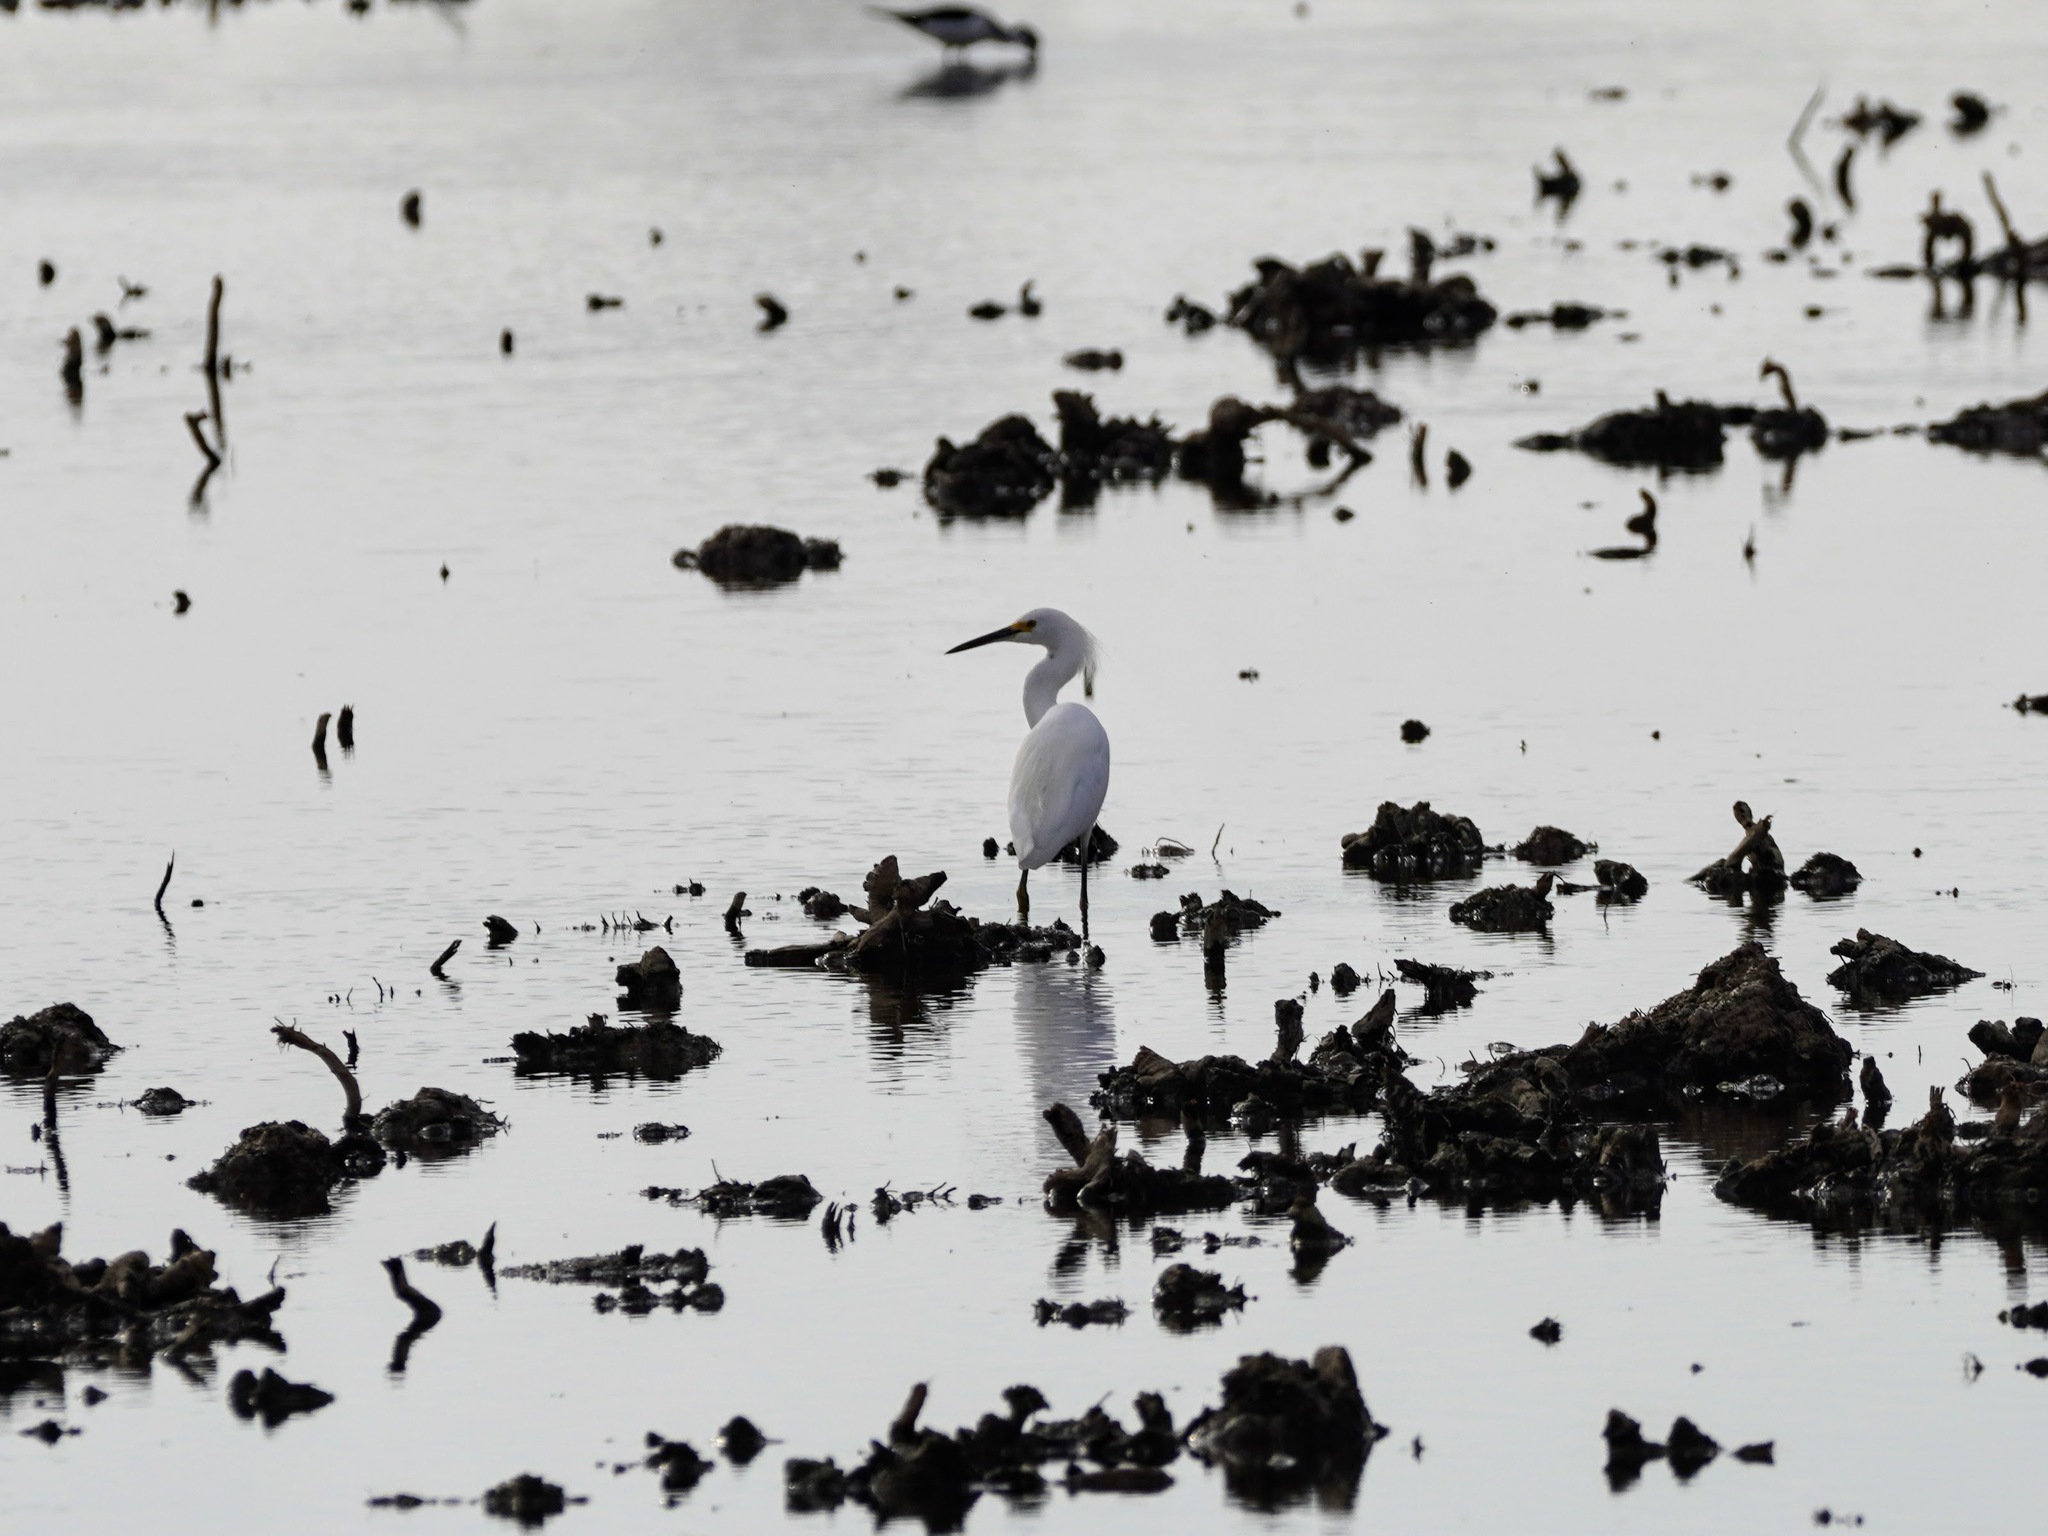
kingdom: Animalia
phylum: Chordata
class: Aves
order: Pelecaniformes
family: Ardeidae
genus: Egretta
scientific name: Egretta thula
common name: Snowy egret
